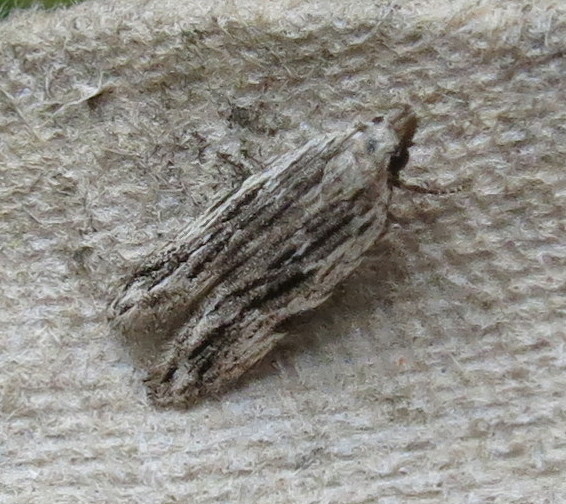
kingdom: Animalia
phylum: Arthropoda
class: Insecta
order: Lepidoptera
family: Gelechiidae
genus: Anarsia
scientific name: Anarsia innoxiella
